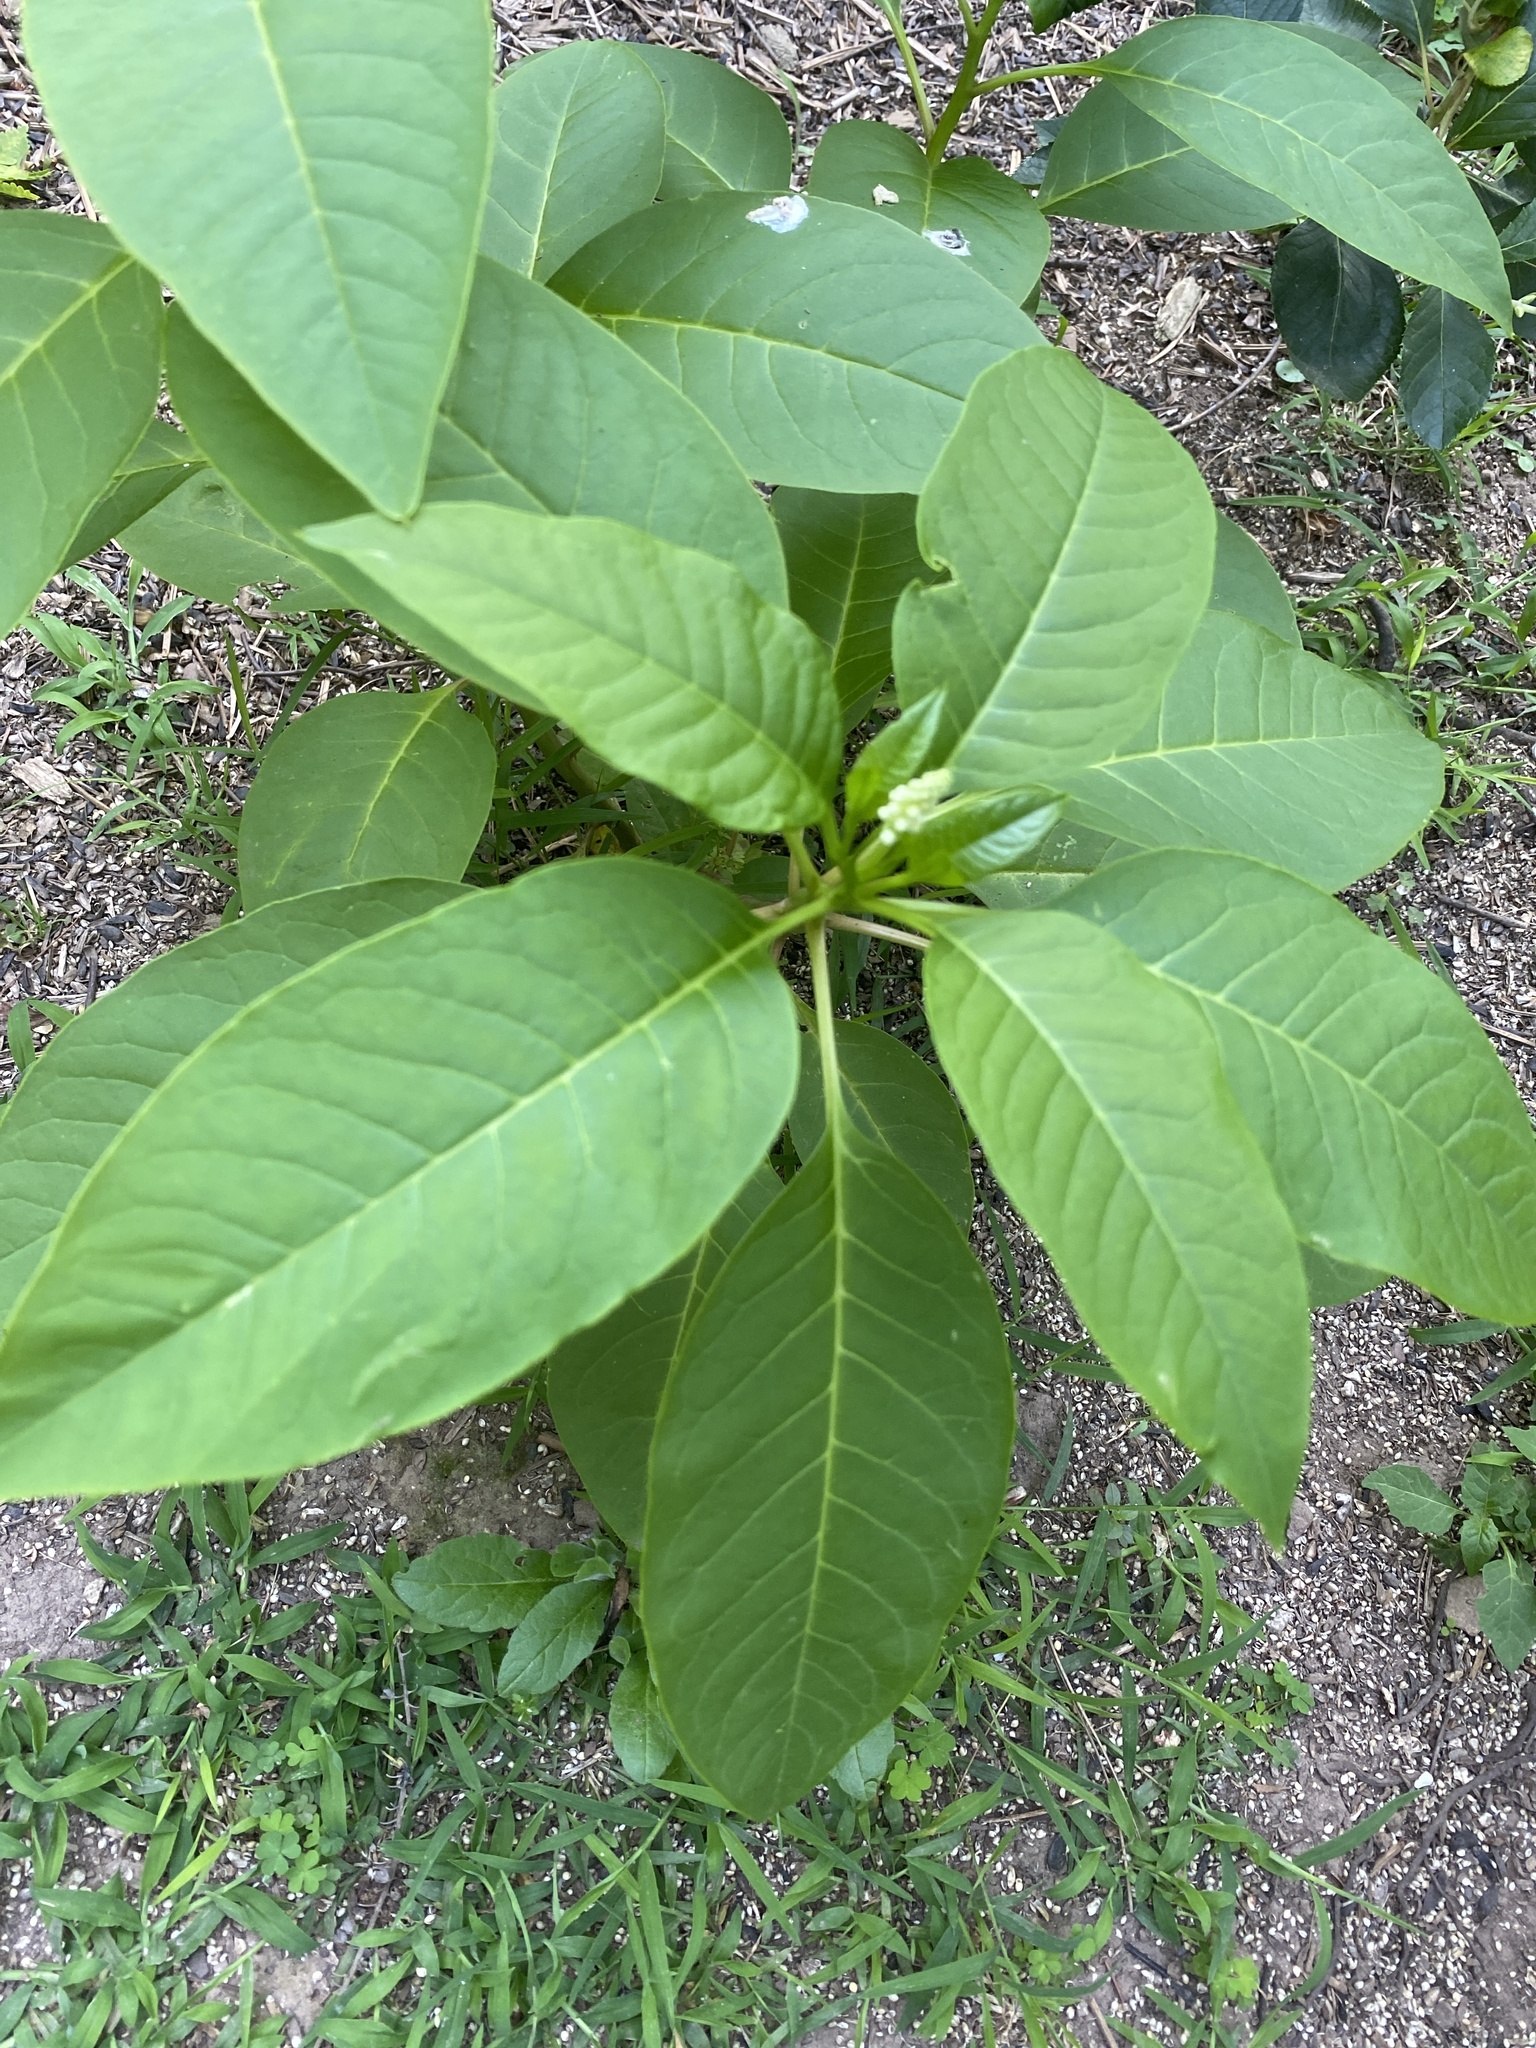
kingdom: Plantae
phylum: Tracheophyta
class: Magnoliopsida
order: Caryophyllales
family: Phytolaccaceae
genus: Phytolacca
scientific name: Phytolacca americana
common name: American pokeweed
